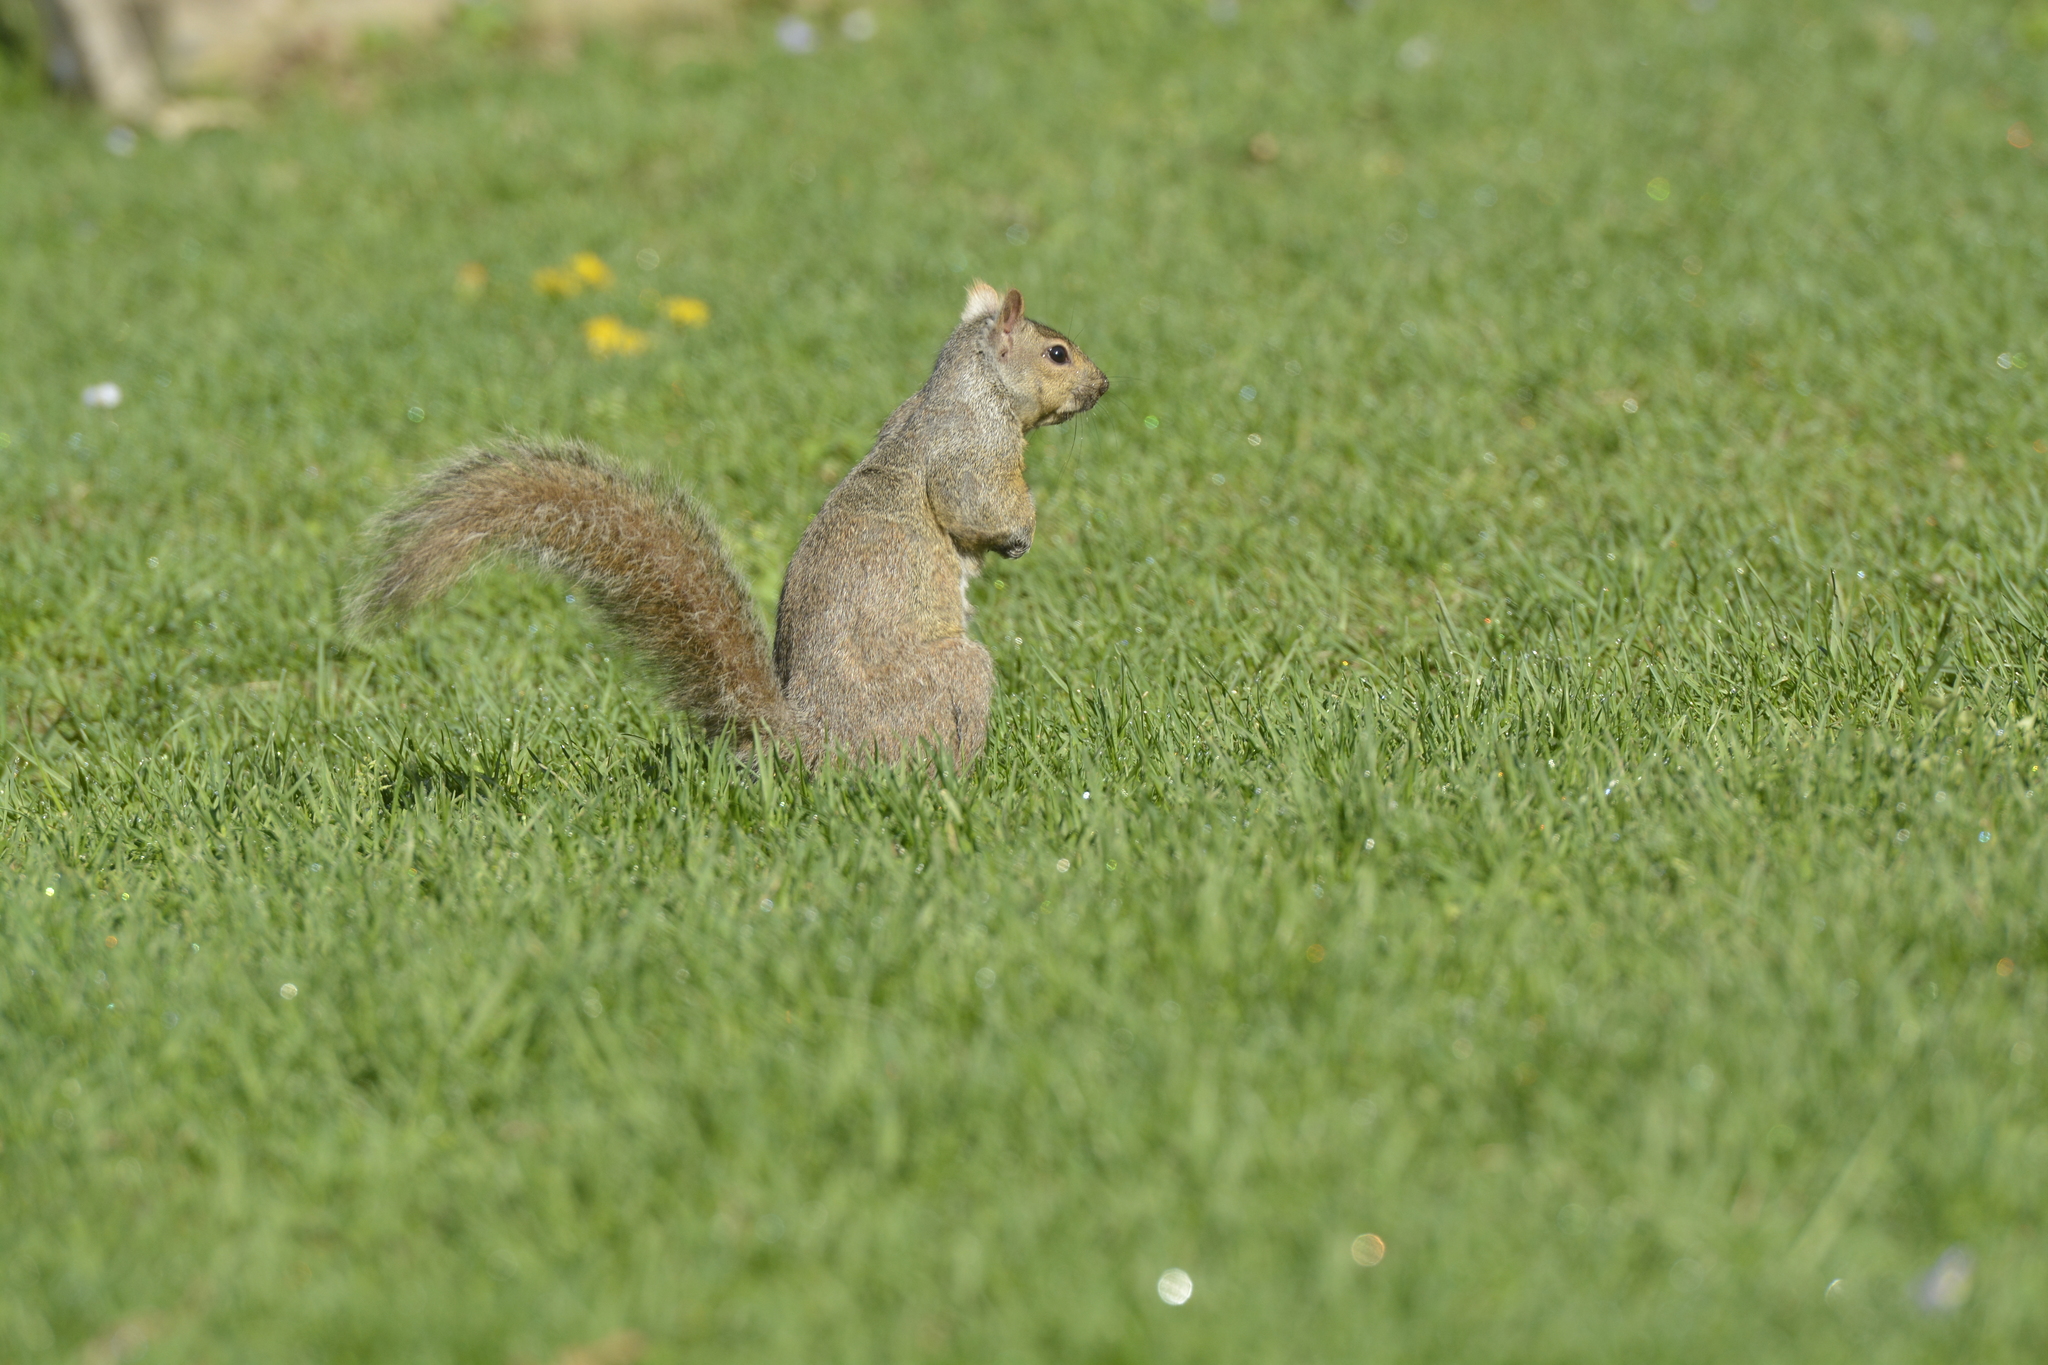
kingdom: Animalia
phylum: Chordata
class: Mammalia
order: Rodentia
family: Sciuridae
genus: Sciurus
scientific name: Sciurus carolinensis
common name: Eastern gray squirrel
